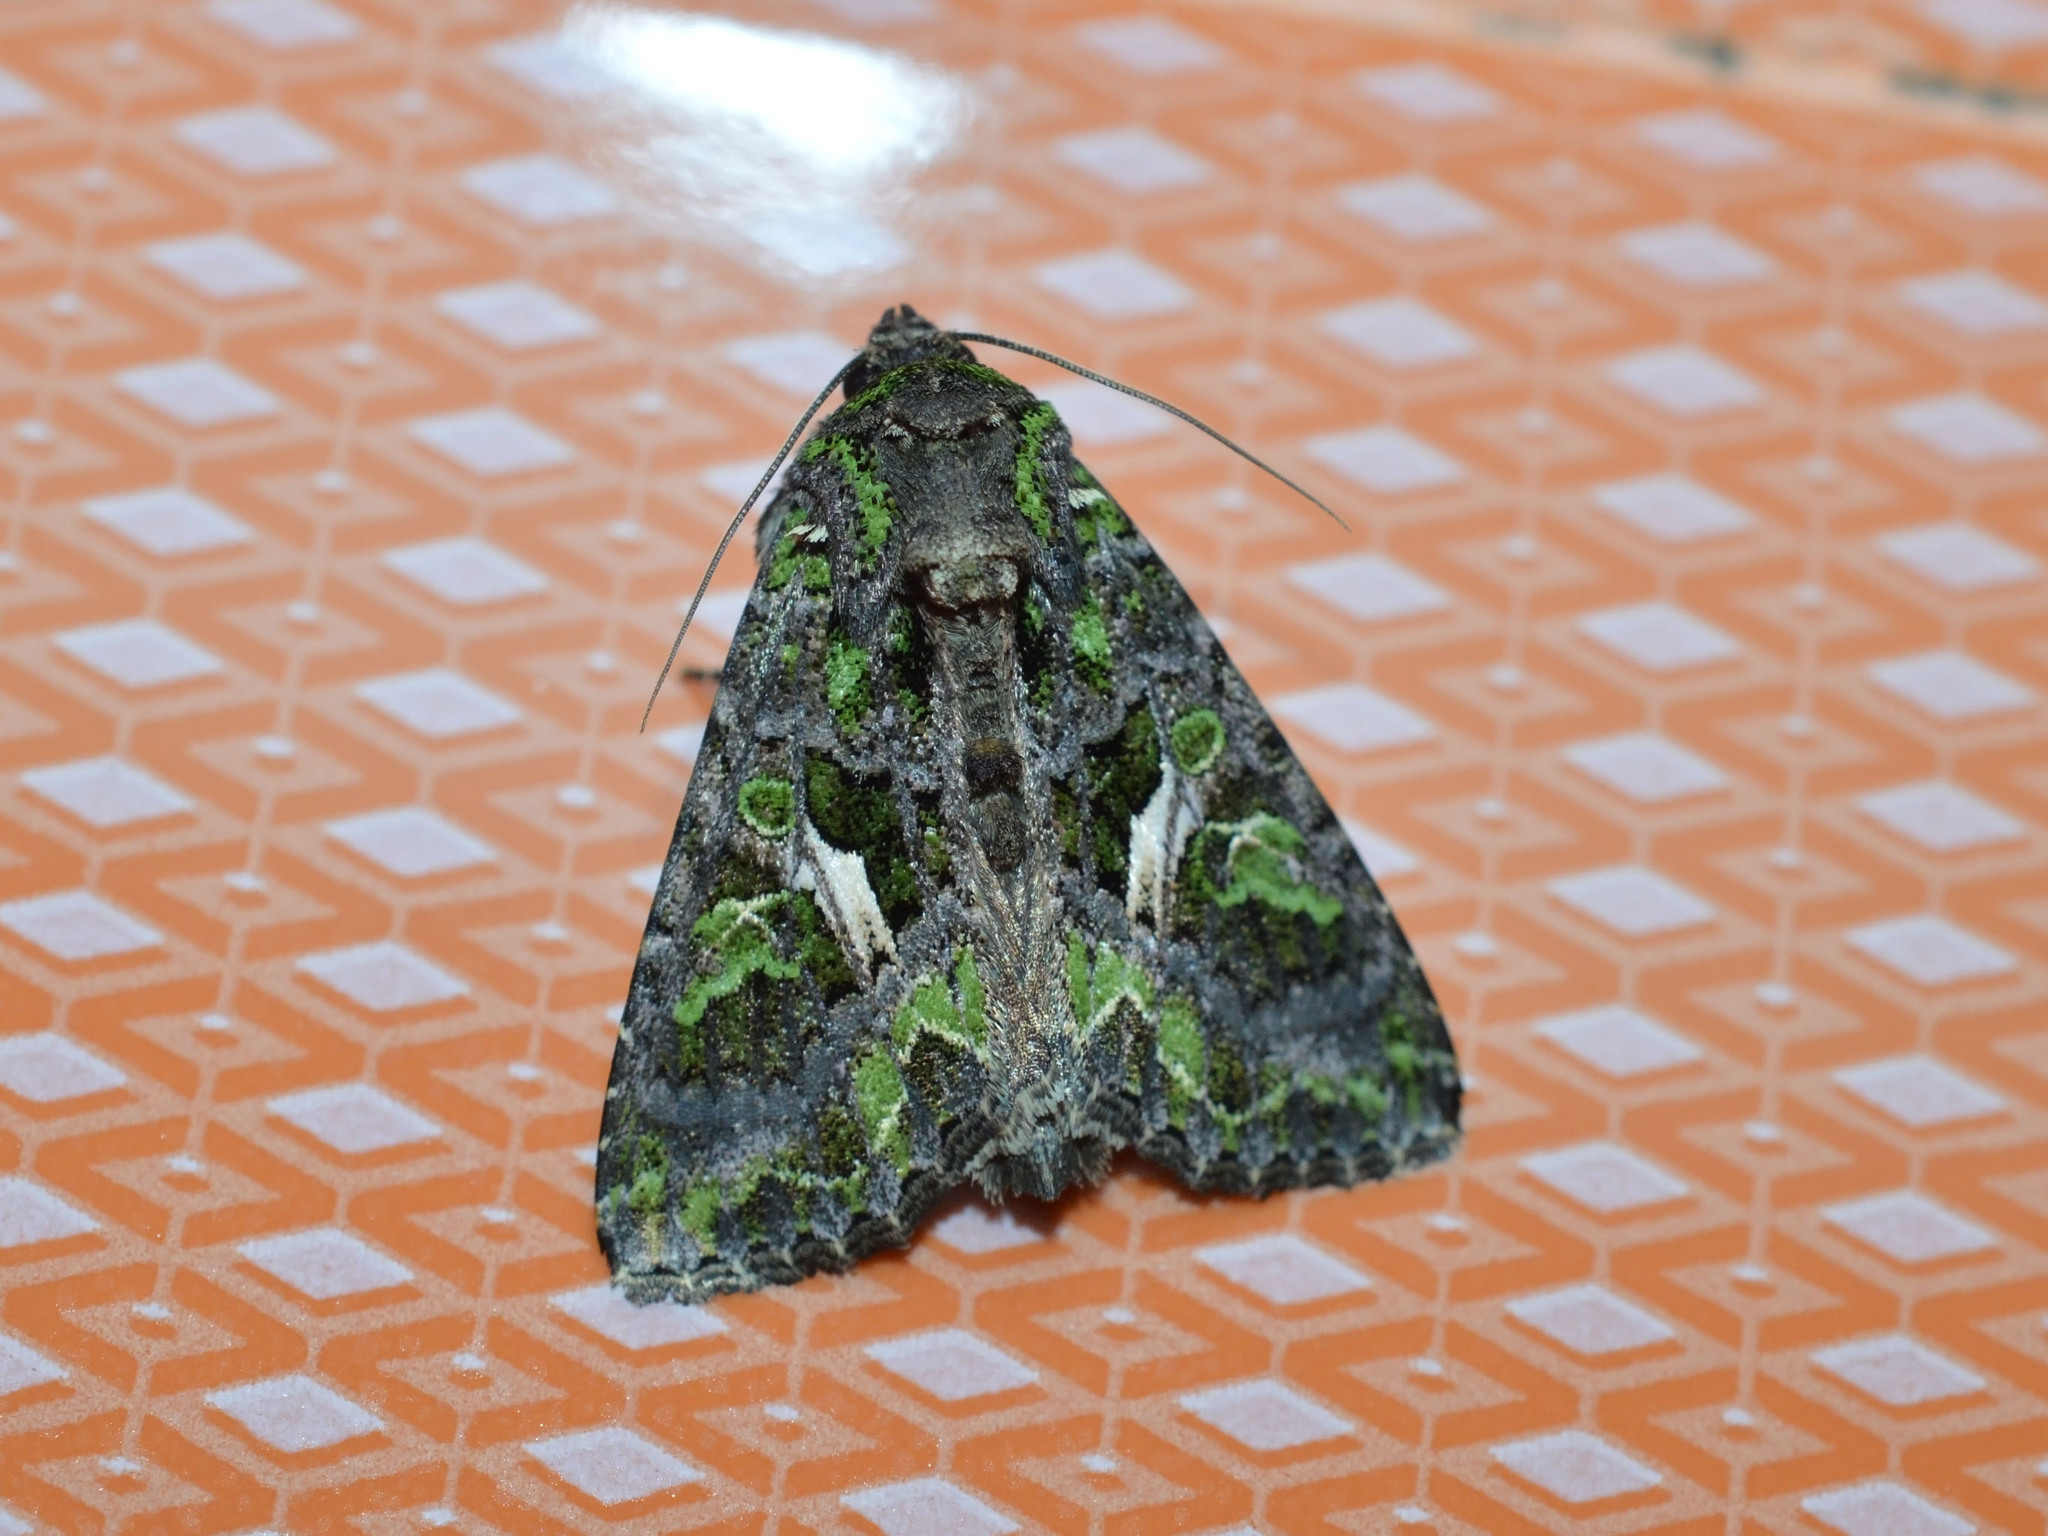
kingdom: Animalia
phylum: Arthropoda
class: Insecta
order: Lepidoptera
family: Noctuidae
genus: Trachea
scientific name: Trachea atriplicis
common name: Orache moth
